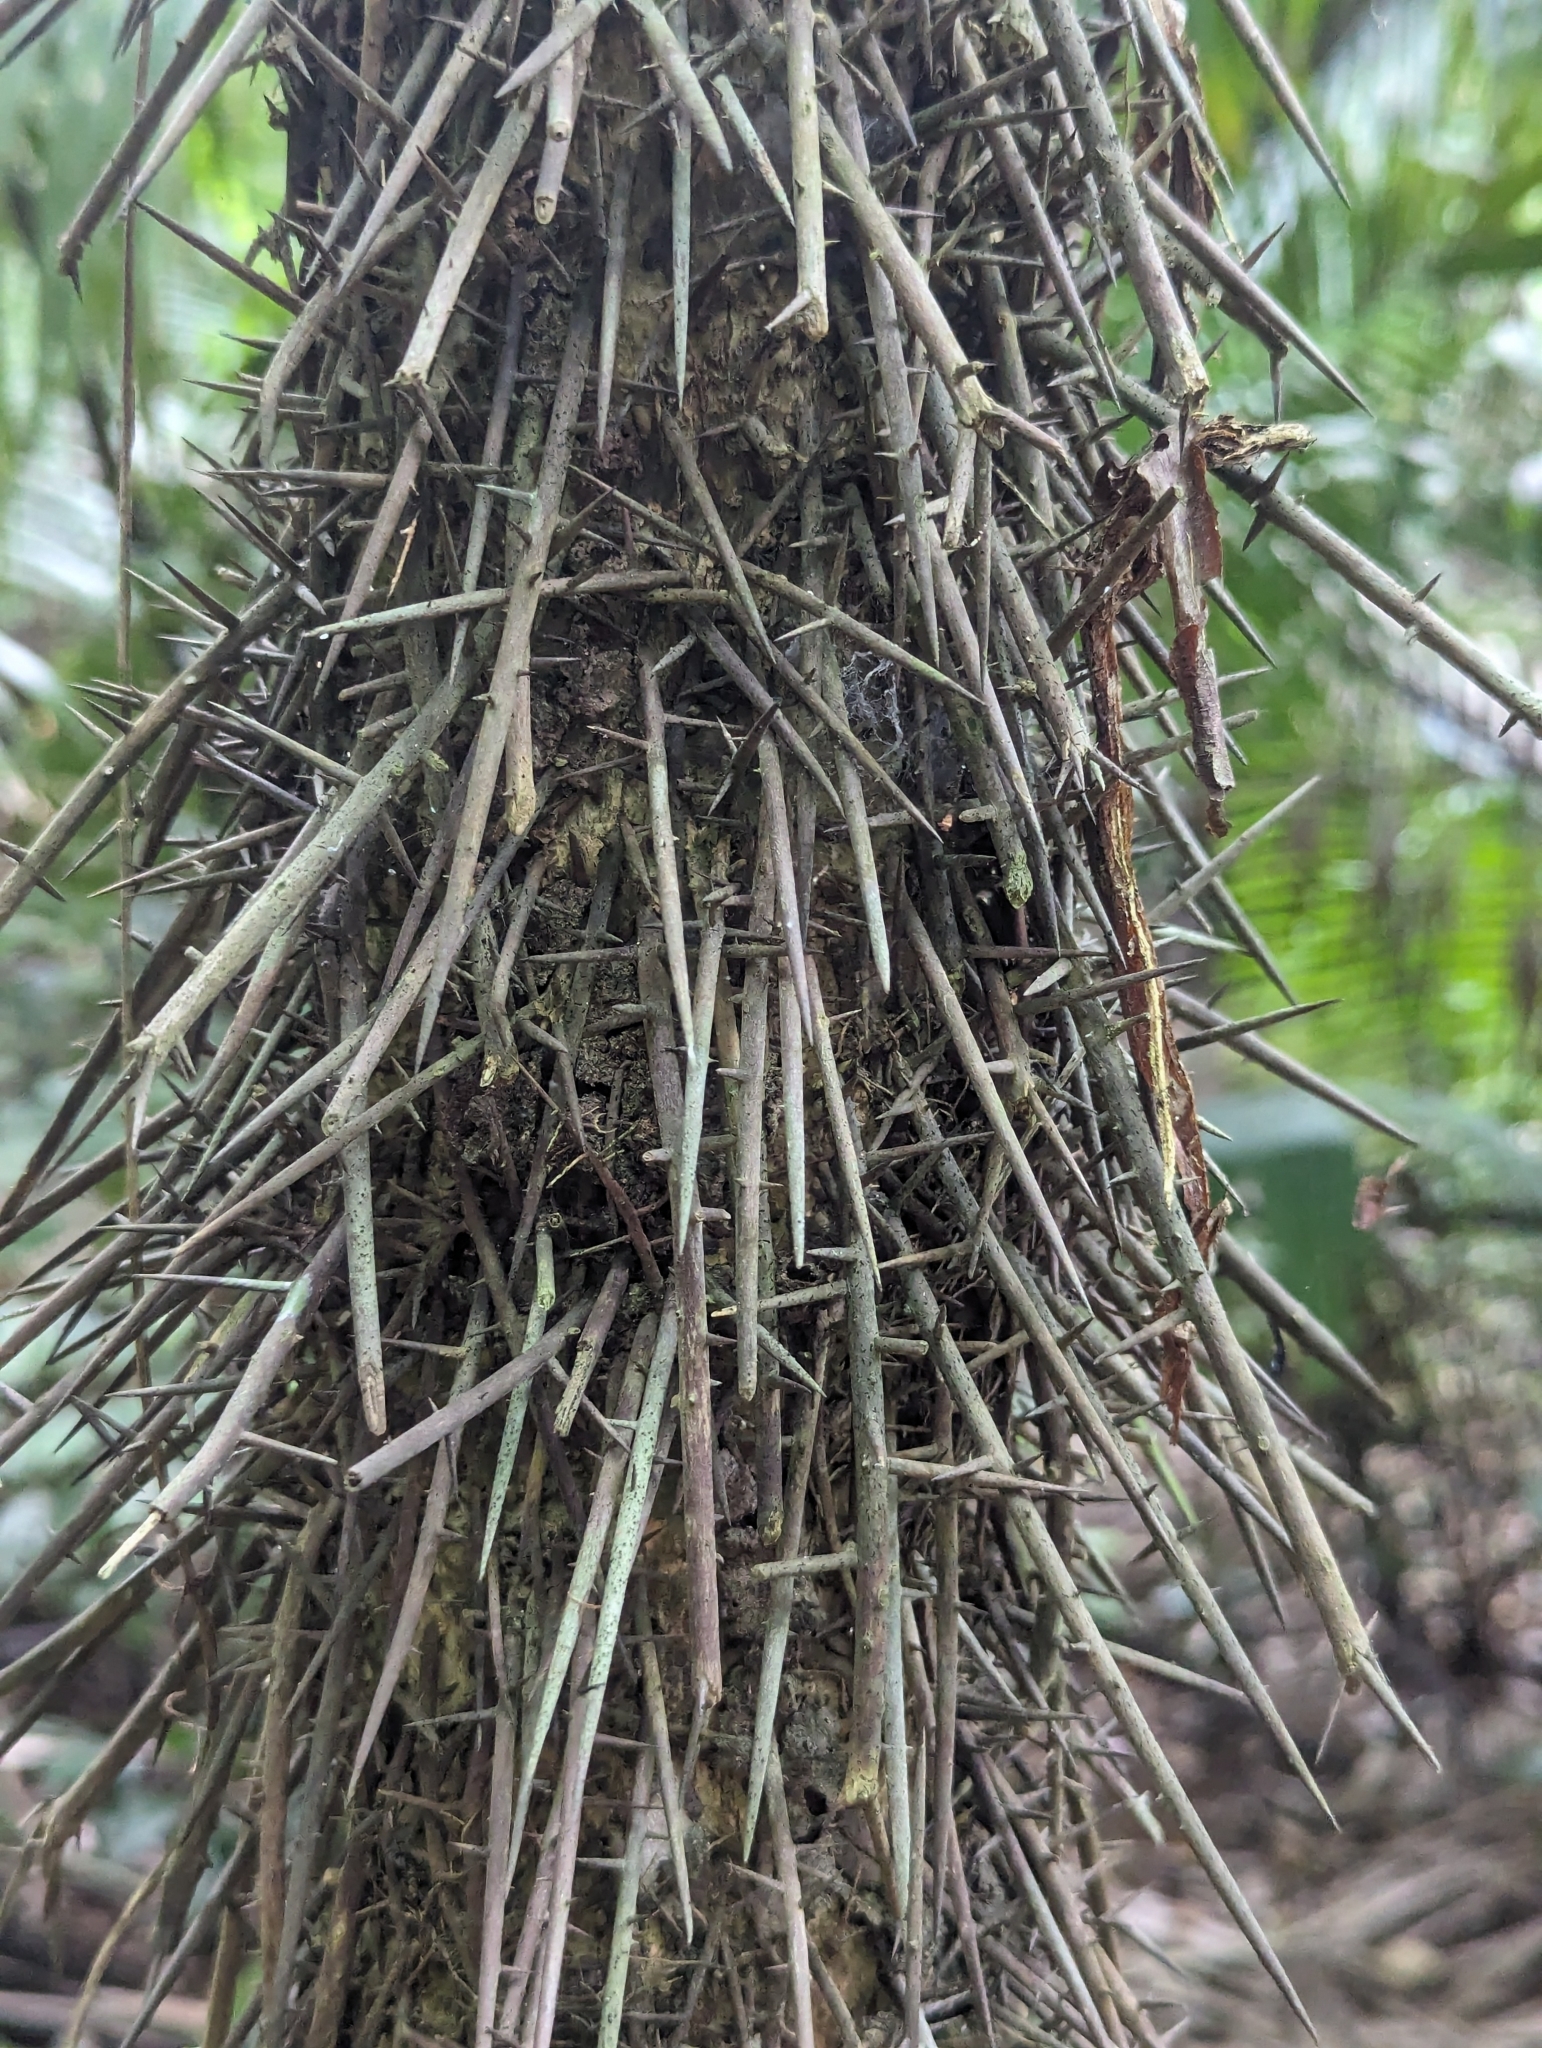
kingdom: Plantae
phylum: Tracheophyta
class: Liliopsida
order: Arecales
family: Arecaceae
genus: Cryosophila
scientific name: Cryosophila stauracantha
